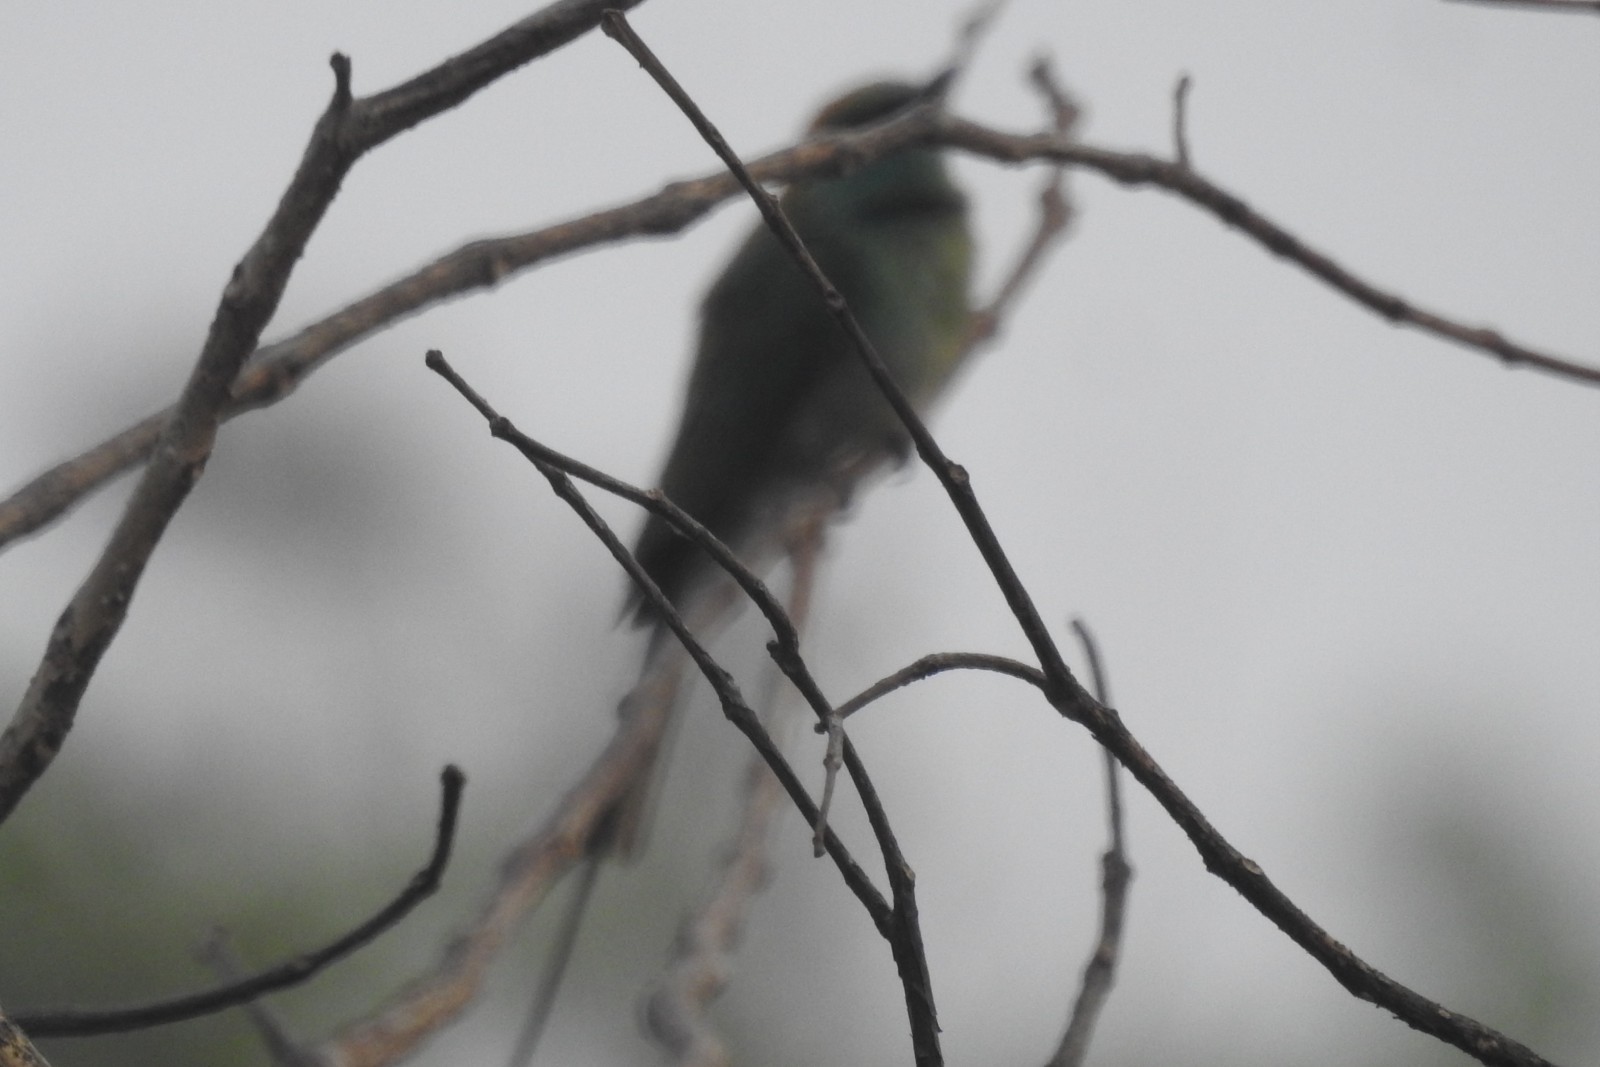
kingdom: Animalia
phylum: Chordata
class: Aves
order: Coraciiformes
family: Meropidae
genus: Merops
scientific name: Merops orientalis
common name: Green bee-eater
